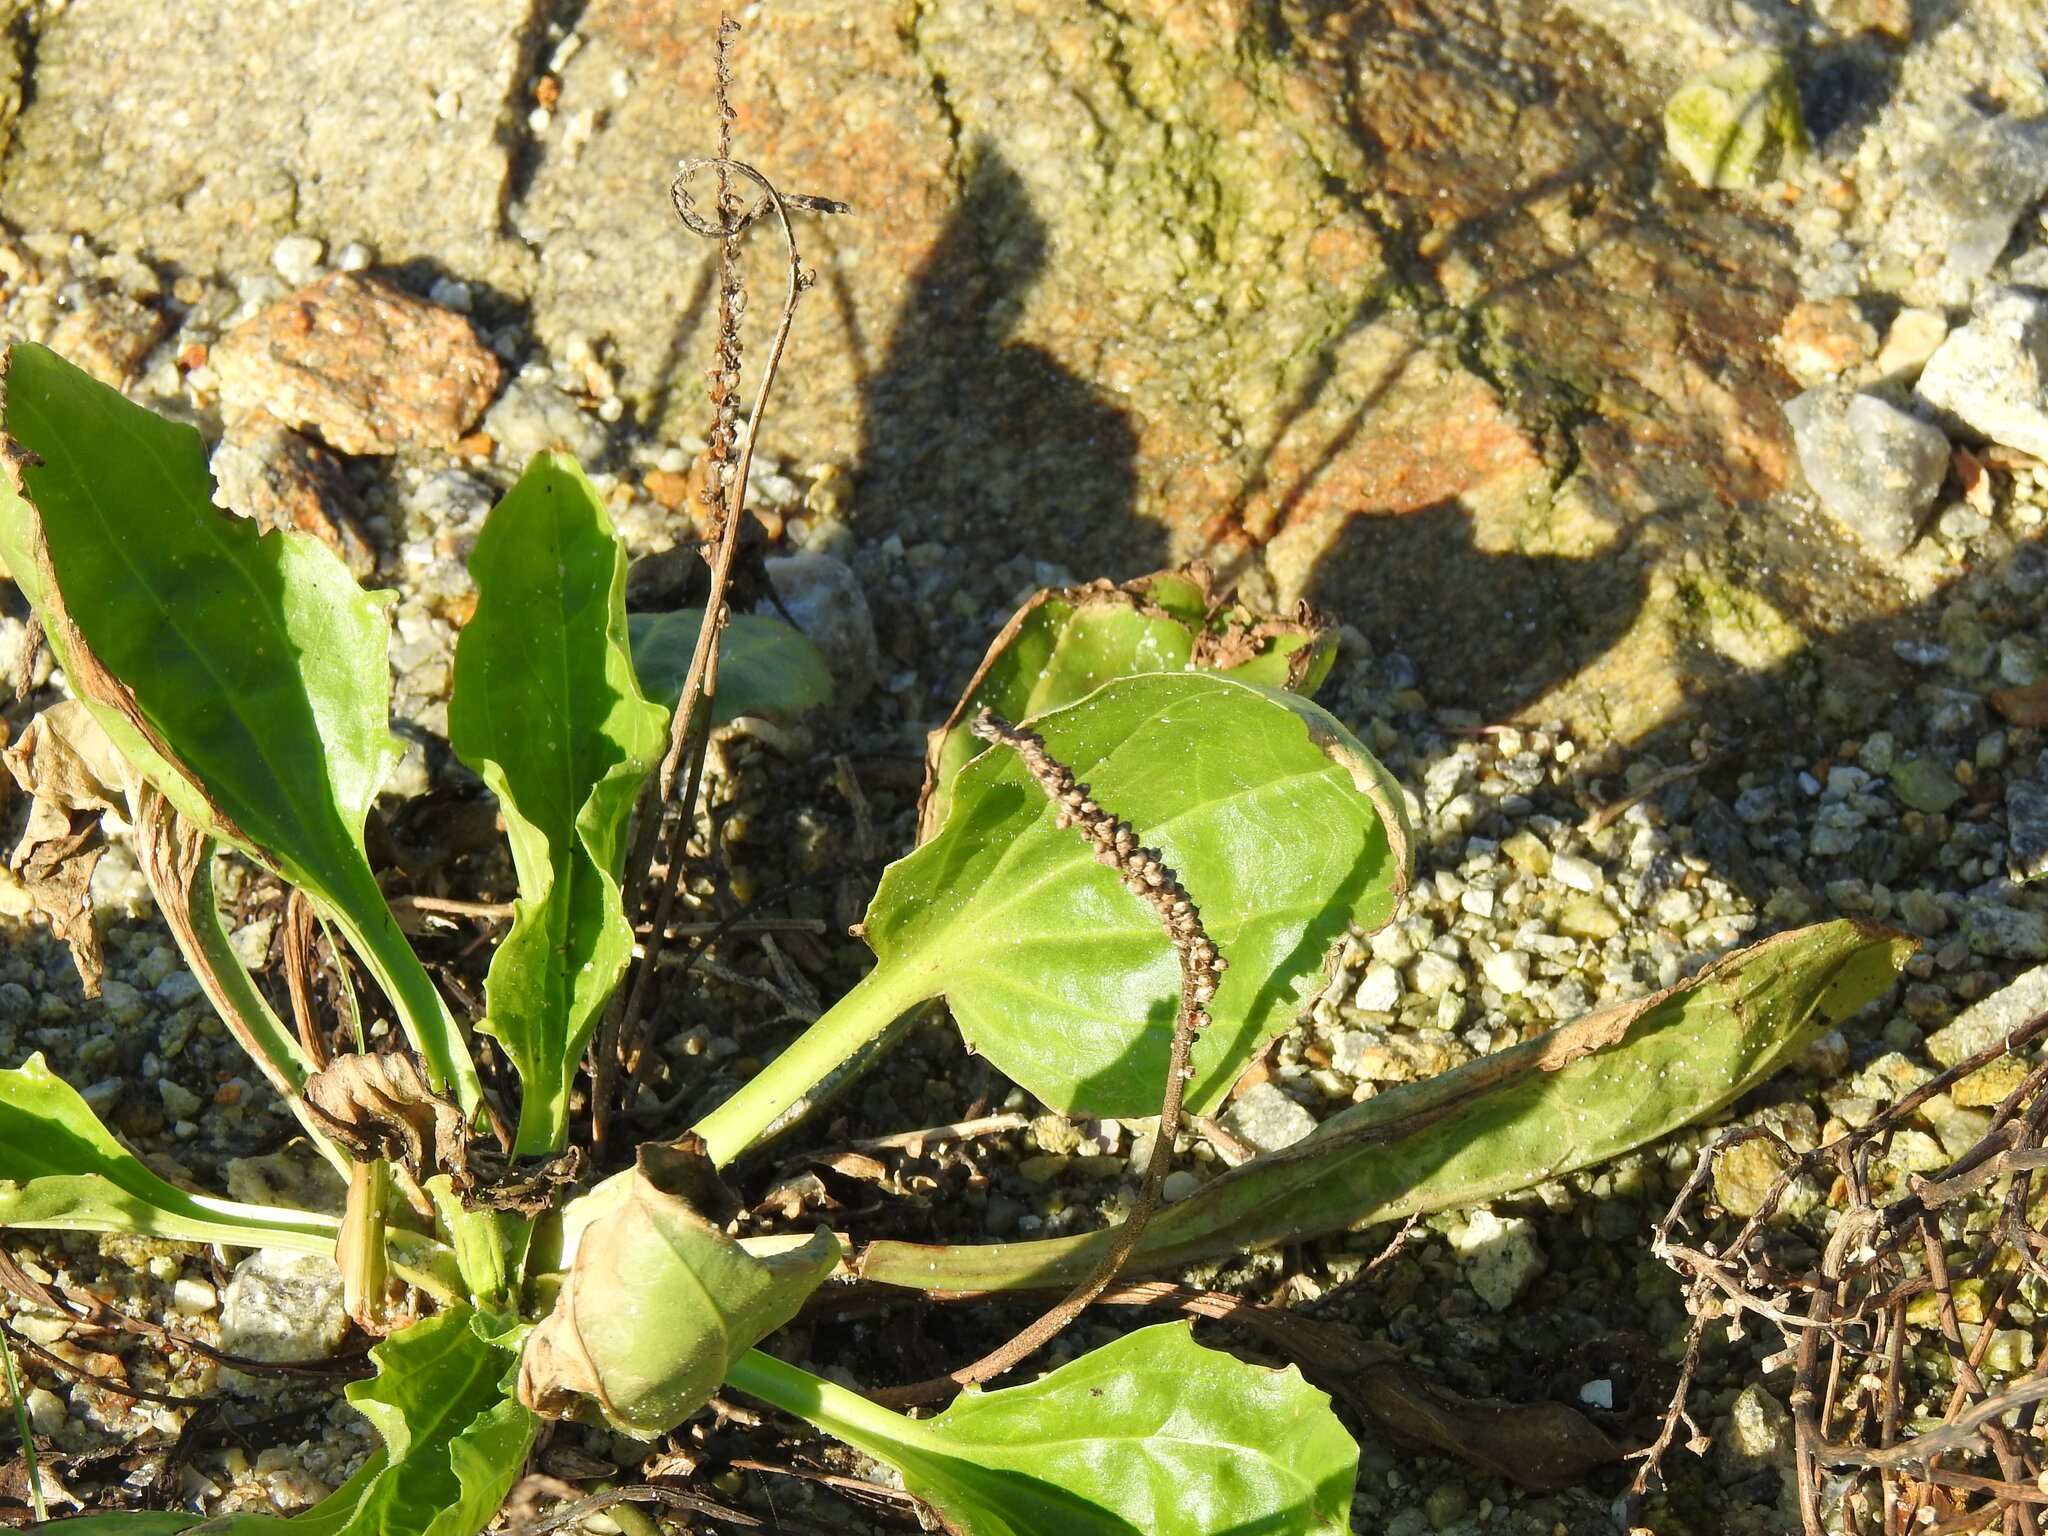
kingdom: Plantae
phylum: Tracheophyta
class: Magnoliopsida
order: Lamiales
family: Plantaginaceae
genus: Plantago
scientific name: Plantago major
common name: Common plantain
